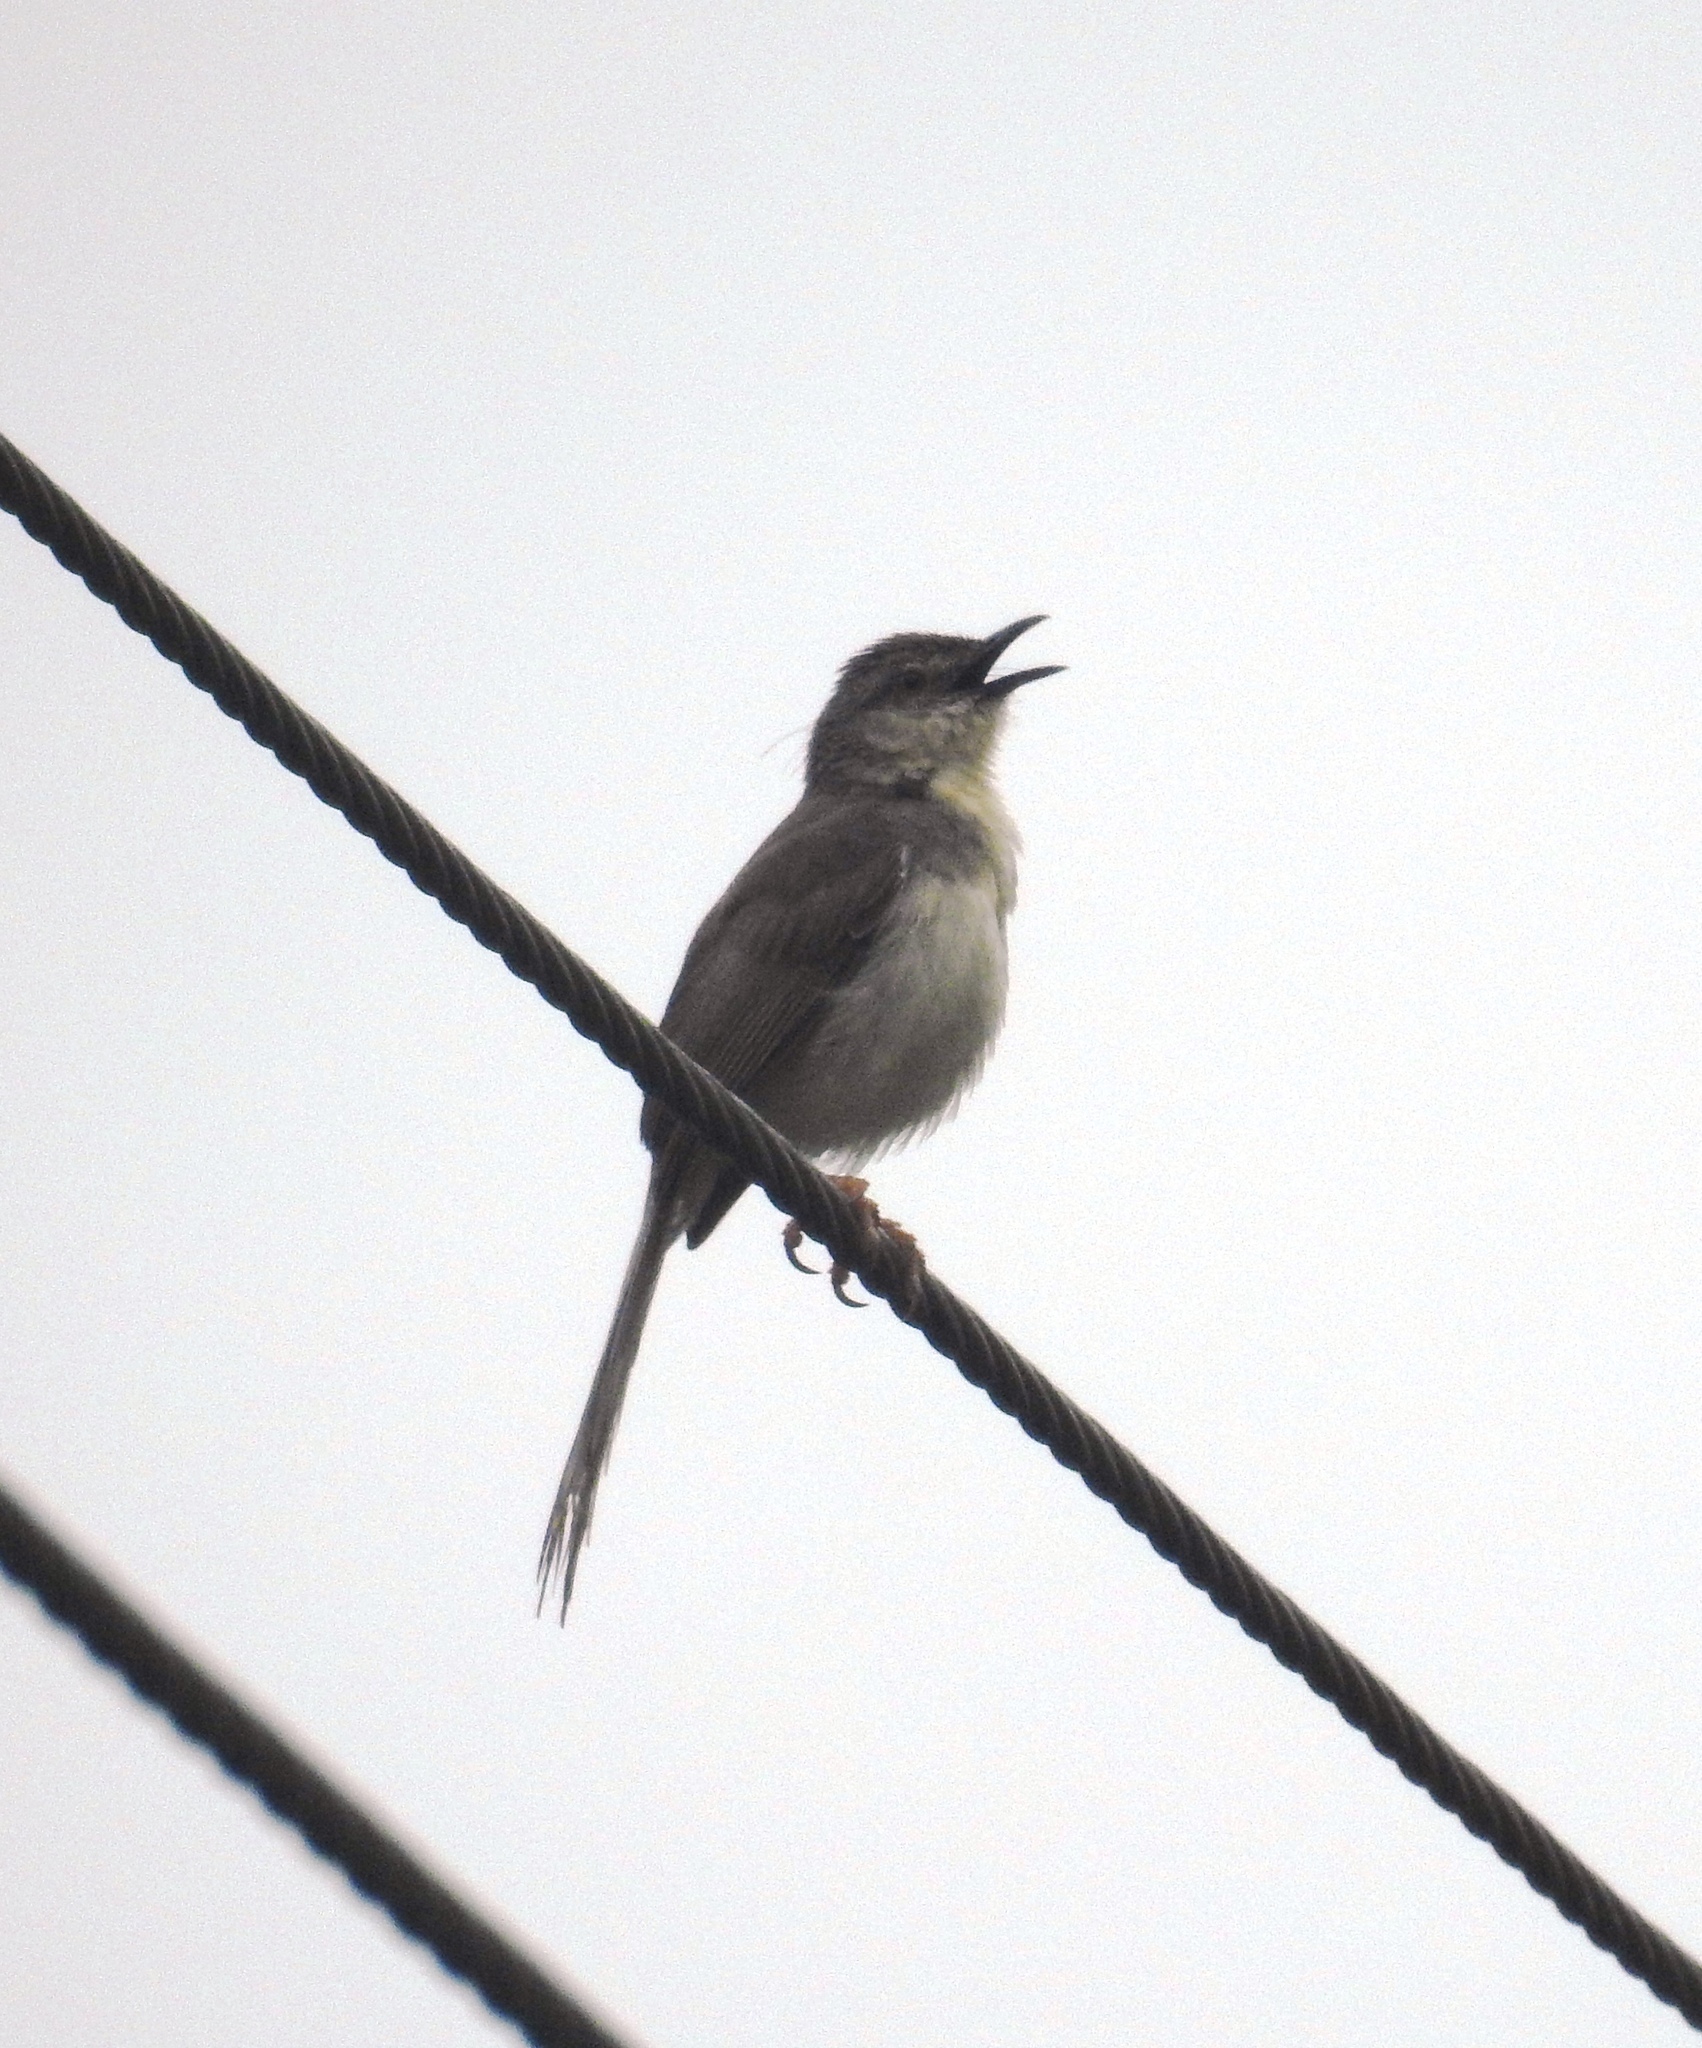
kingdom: Animalia
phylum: Chordata
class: Aves
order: Passeriformes
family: Cisticolidae
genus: Prinia
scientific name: Prinia hodgsonii
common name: Grey-breasted prinia
